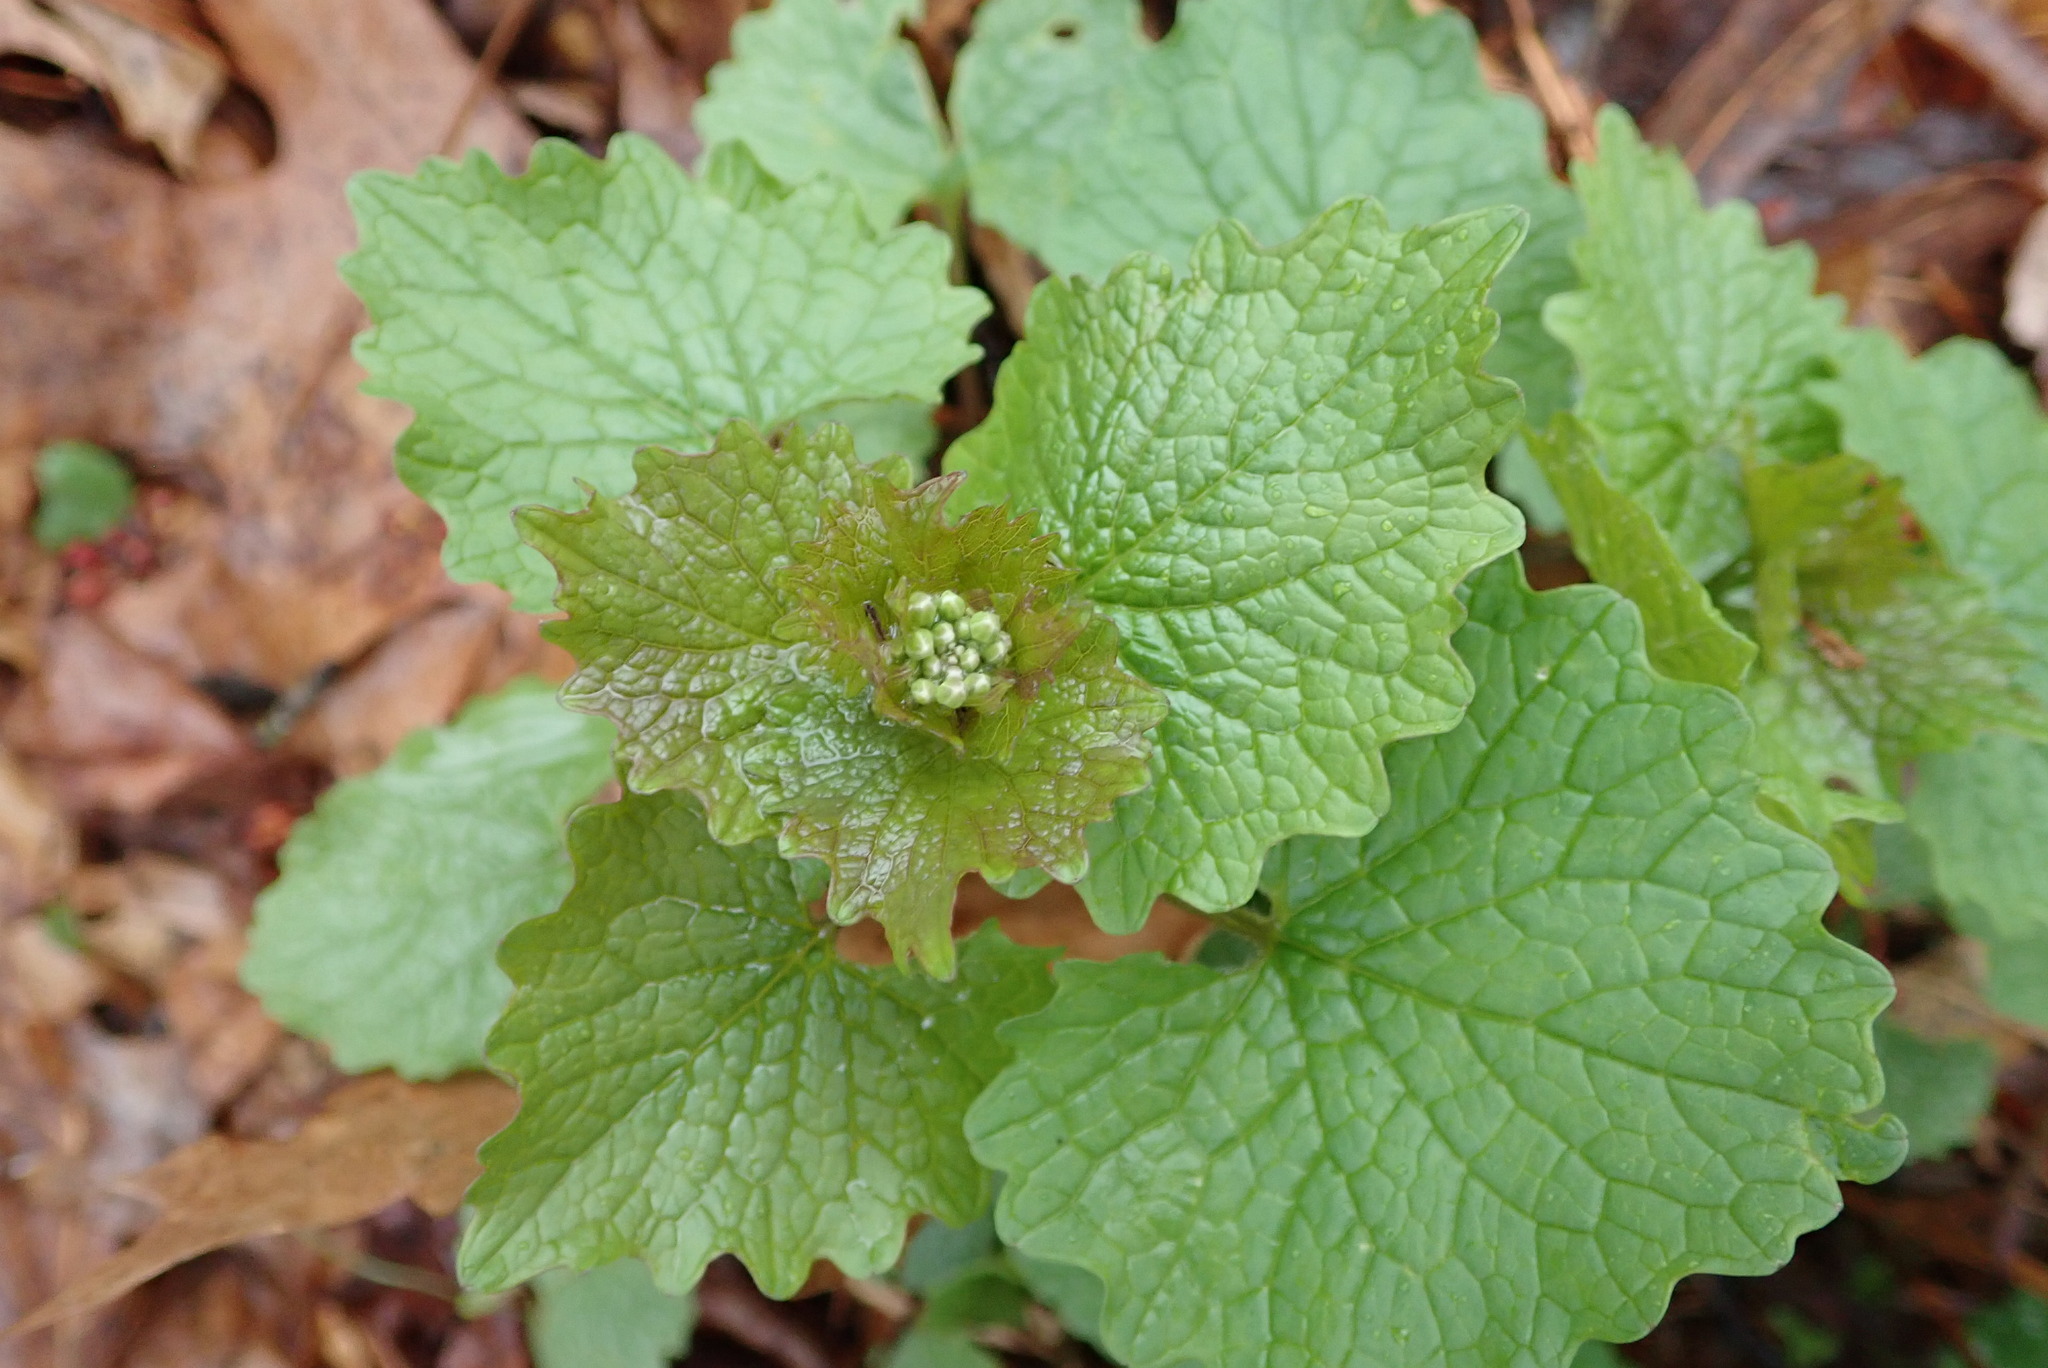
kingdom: Plantae
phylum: Tracheophyta
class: Magnoliopsida
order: Brassicales
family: Brassicaceae
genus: Alliaria
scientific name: Alliaria petiolata
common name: Garlic mustard
